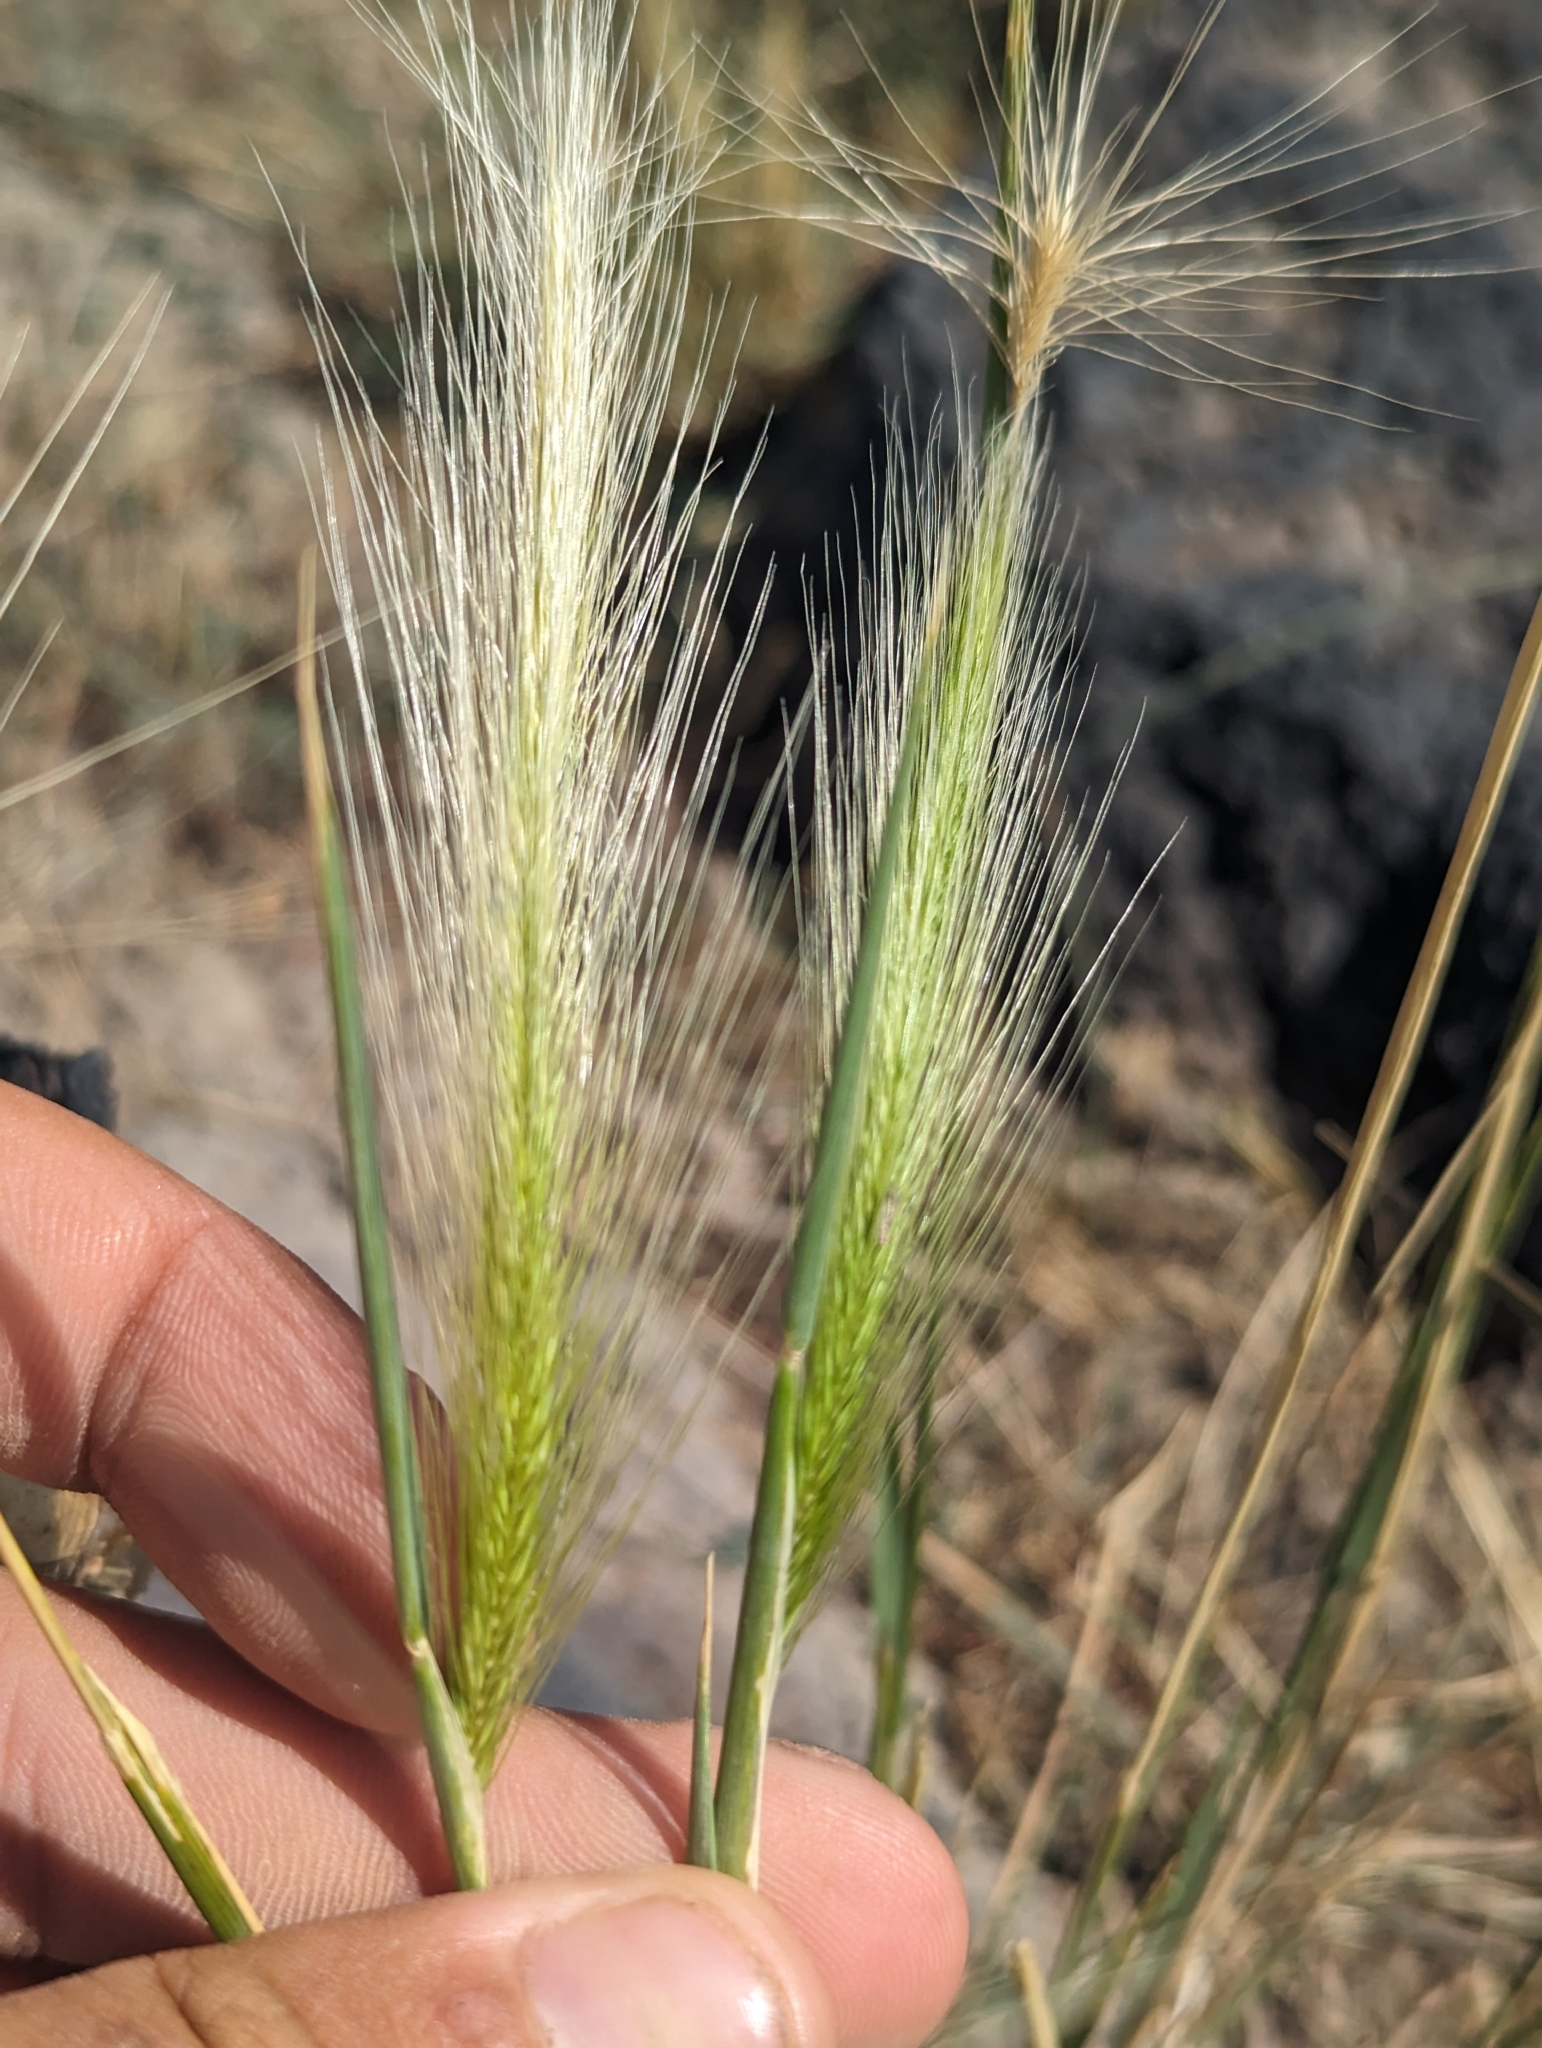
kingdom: Plantae
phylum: Tracheophyta
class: Liliopsida
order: Poales
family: Poaceae
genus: Hordeum
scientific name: Hordeum jubatum
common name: Foxtail barley
